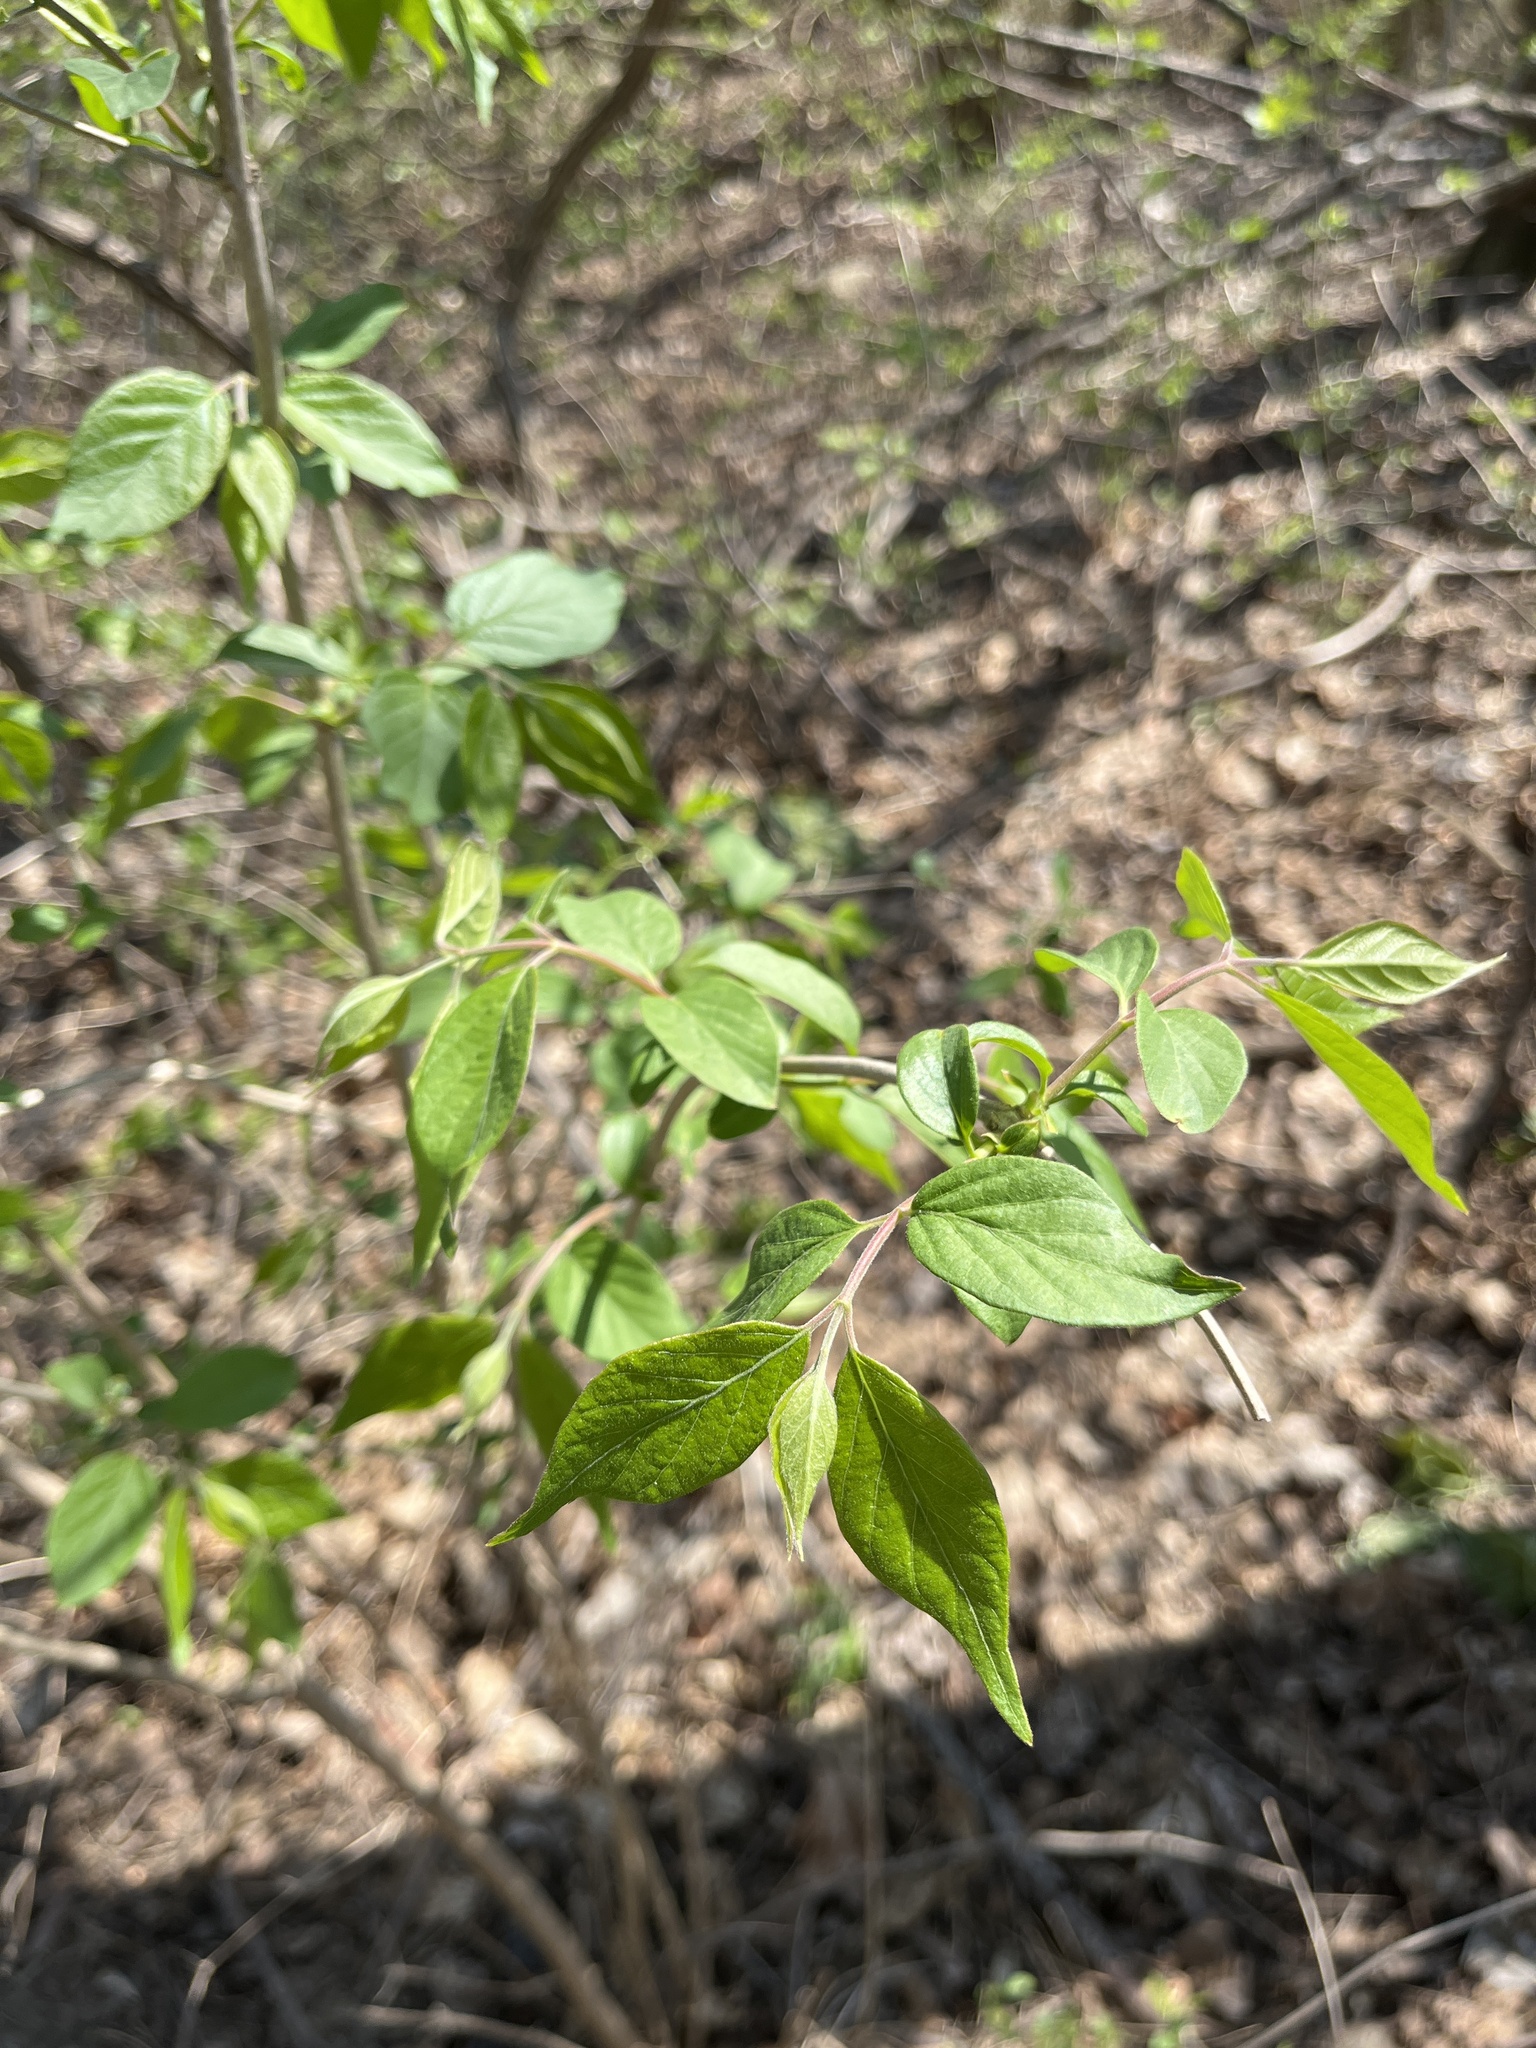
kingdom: Plantae
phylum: Tracheophyta
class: Magnoliopsida
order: Dipsacales
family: Caprifoliaceae
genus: Lonicera
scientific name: Lonicera maackii
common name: Amur honeysuckle
